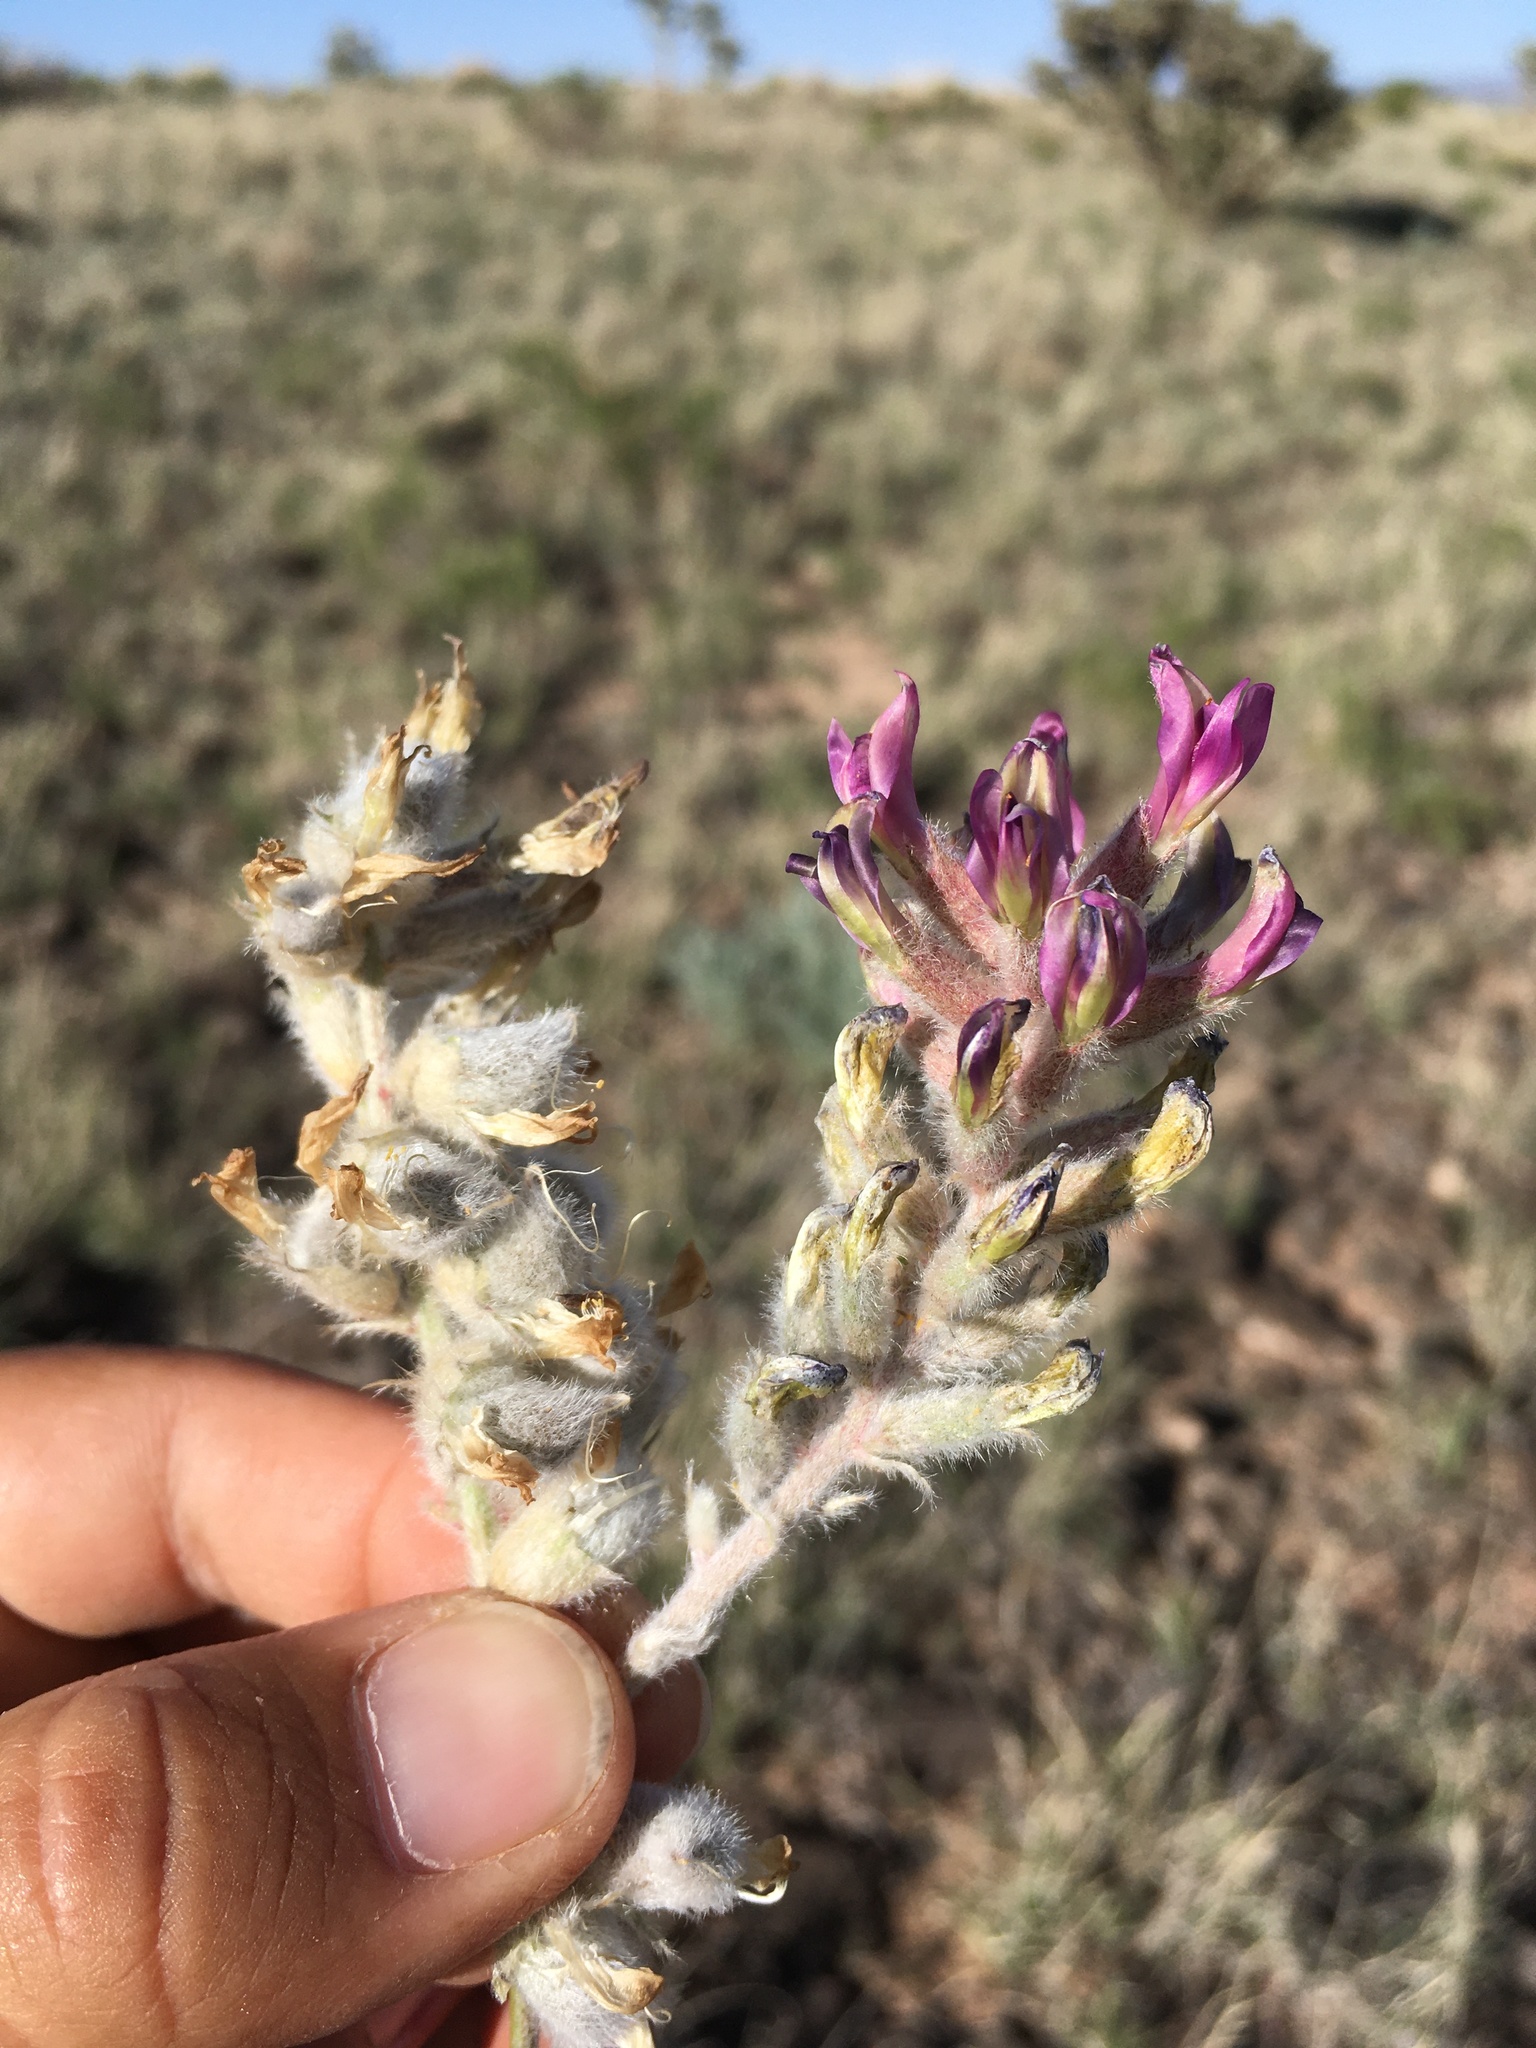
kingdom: Plantae
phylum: Tracheophyta
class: Magnoliopsida
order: Fabales
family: Fabaceae
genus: Astragalus
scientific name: Astragalus mollissimus
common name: Woolly locoweed
